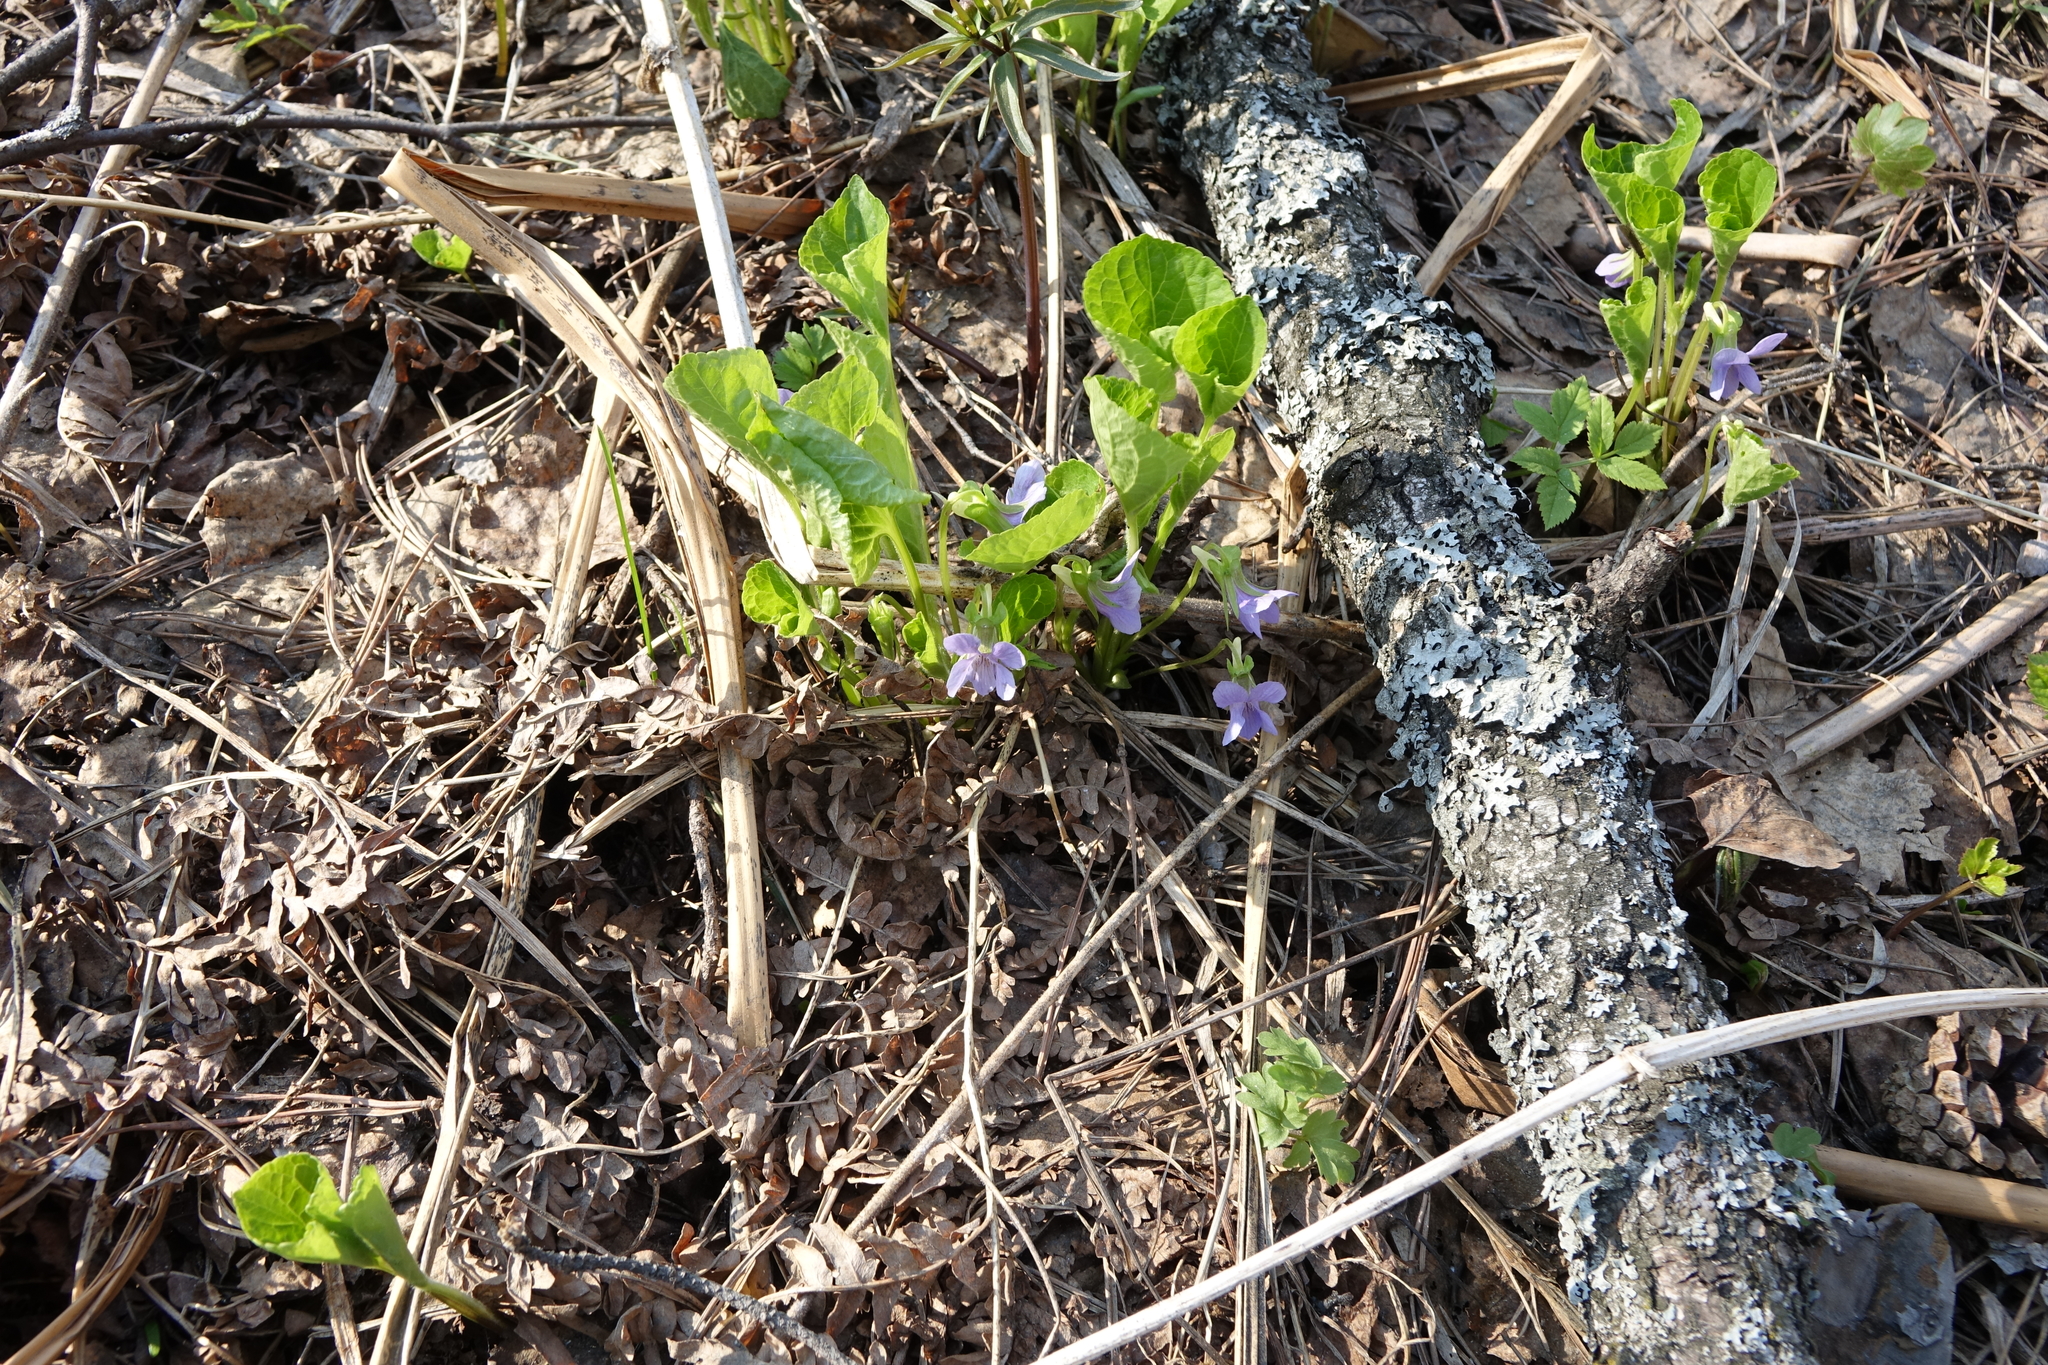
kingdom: Plantae
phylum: Tracheophyta
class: Magnoliopsida
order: Malpighiales
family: Violaceae
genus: Viola
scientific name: Viola mirabilis
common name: Wonder violet
